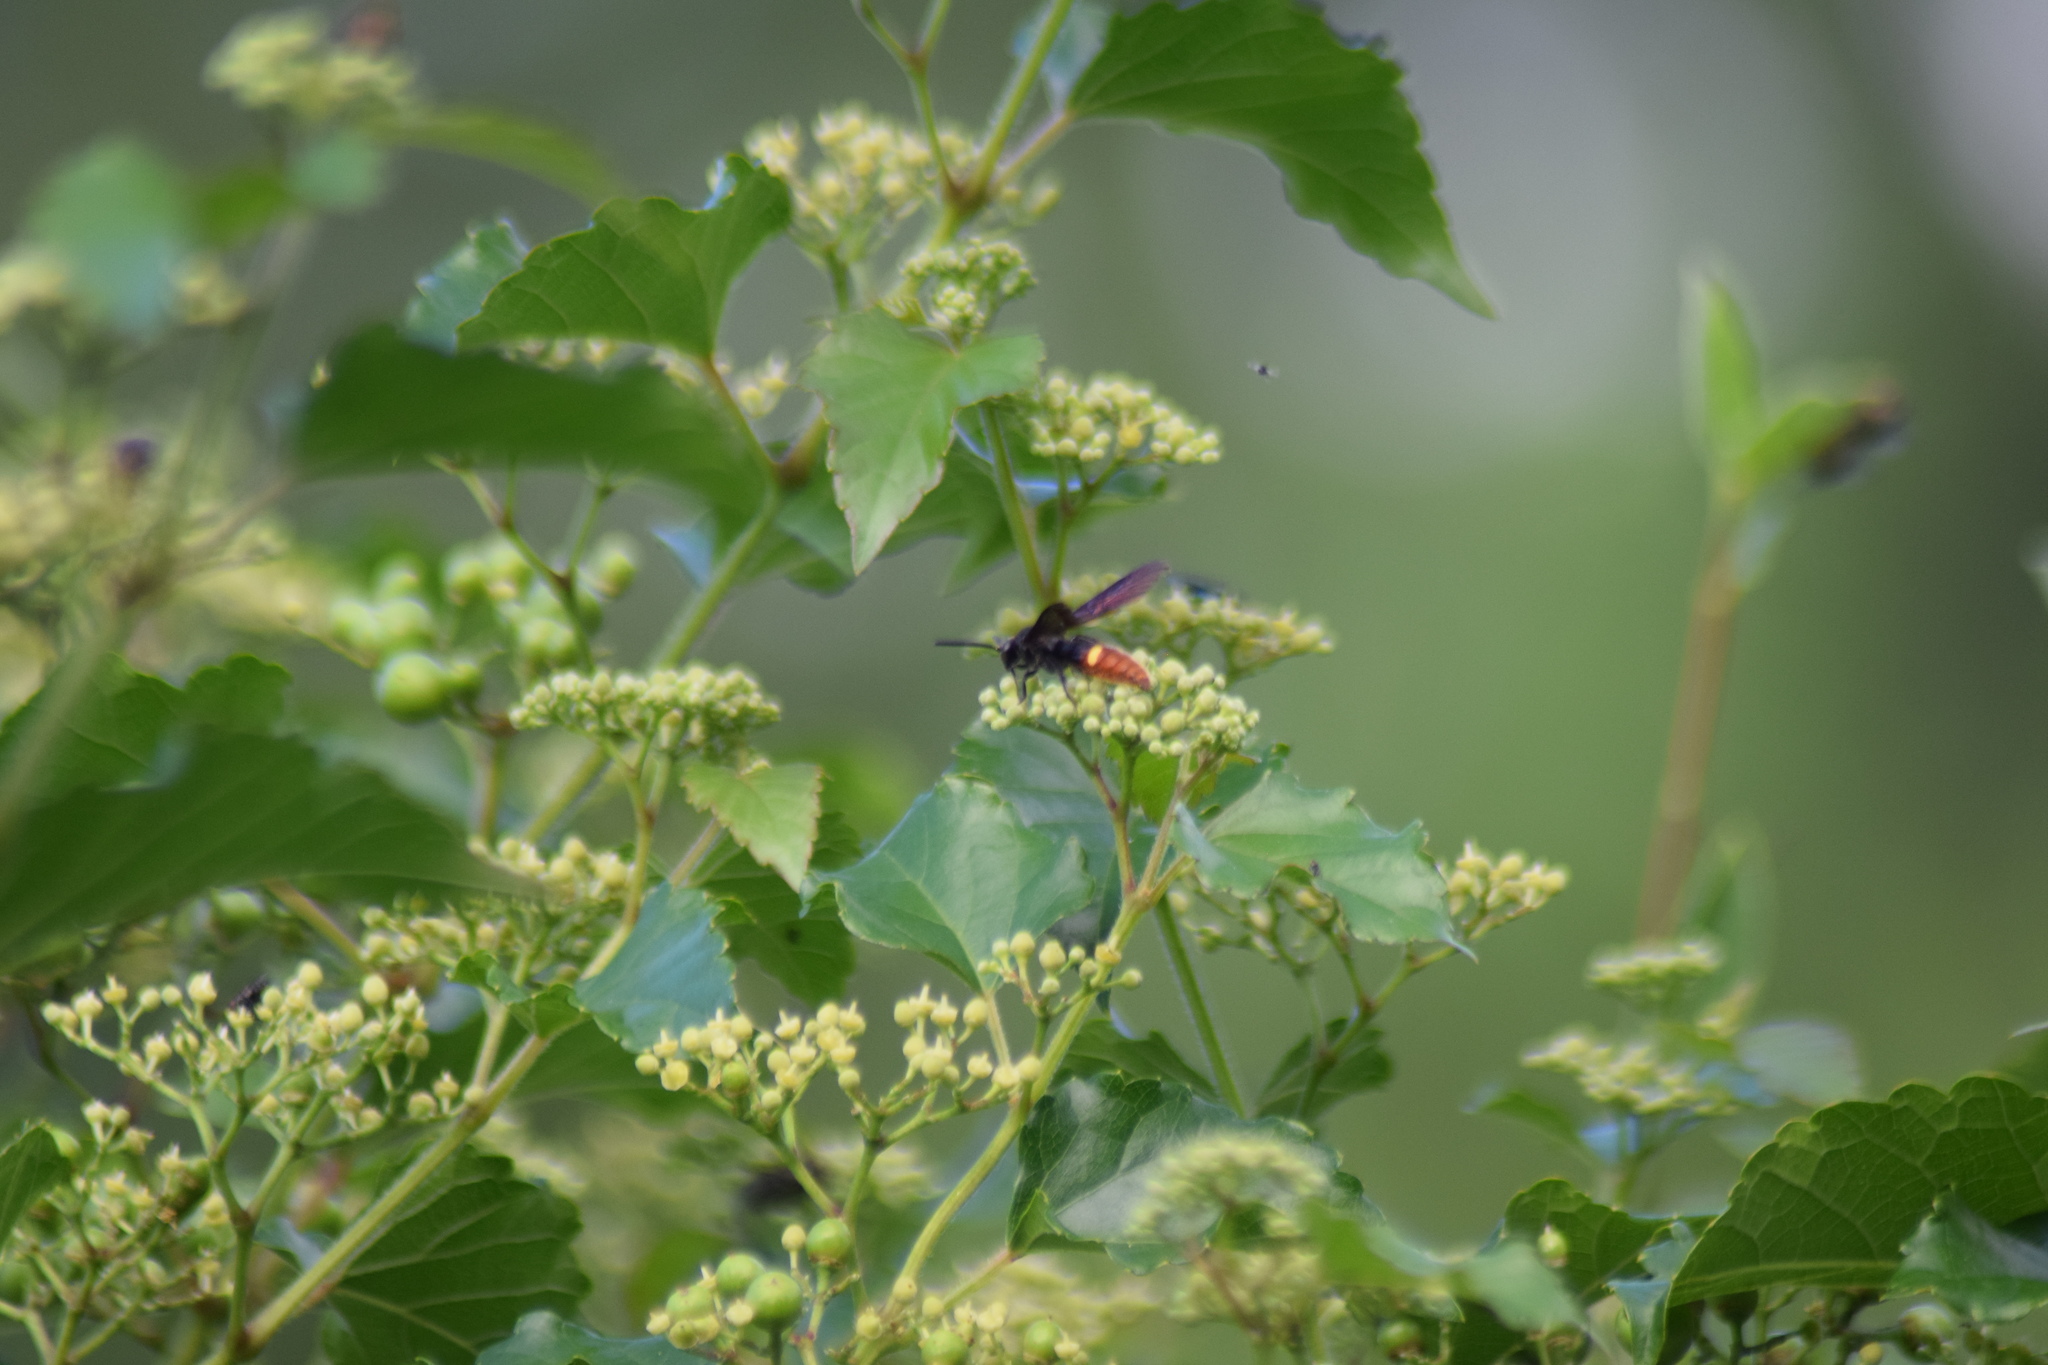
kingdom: Animalia
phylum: Arthropoda
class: Insecta
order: Hymenoptera
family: Scoliidae
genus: Scolia
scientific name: Scolia dubia
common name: Blue-winged scoliid wasp
